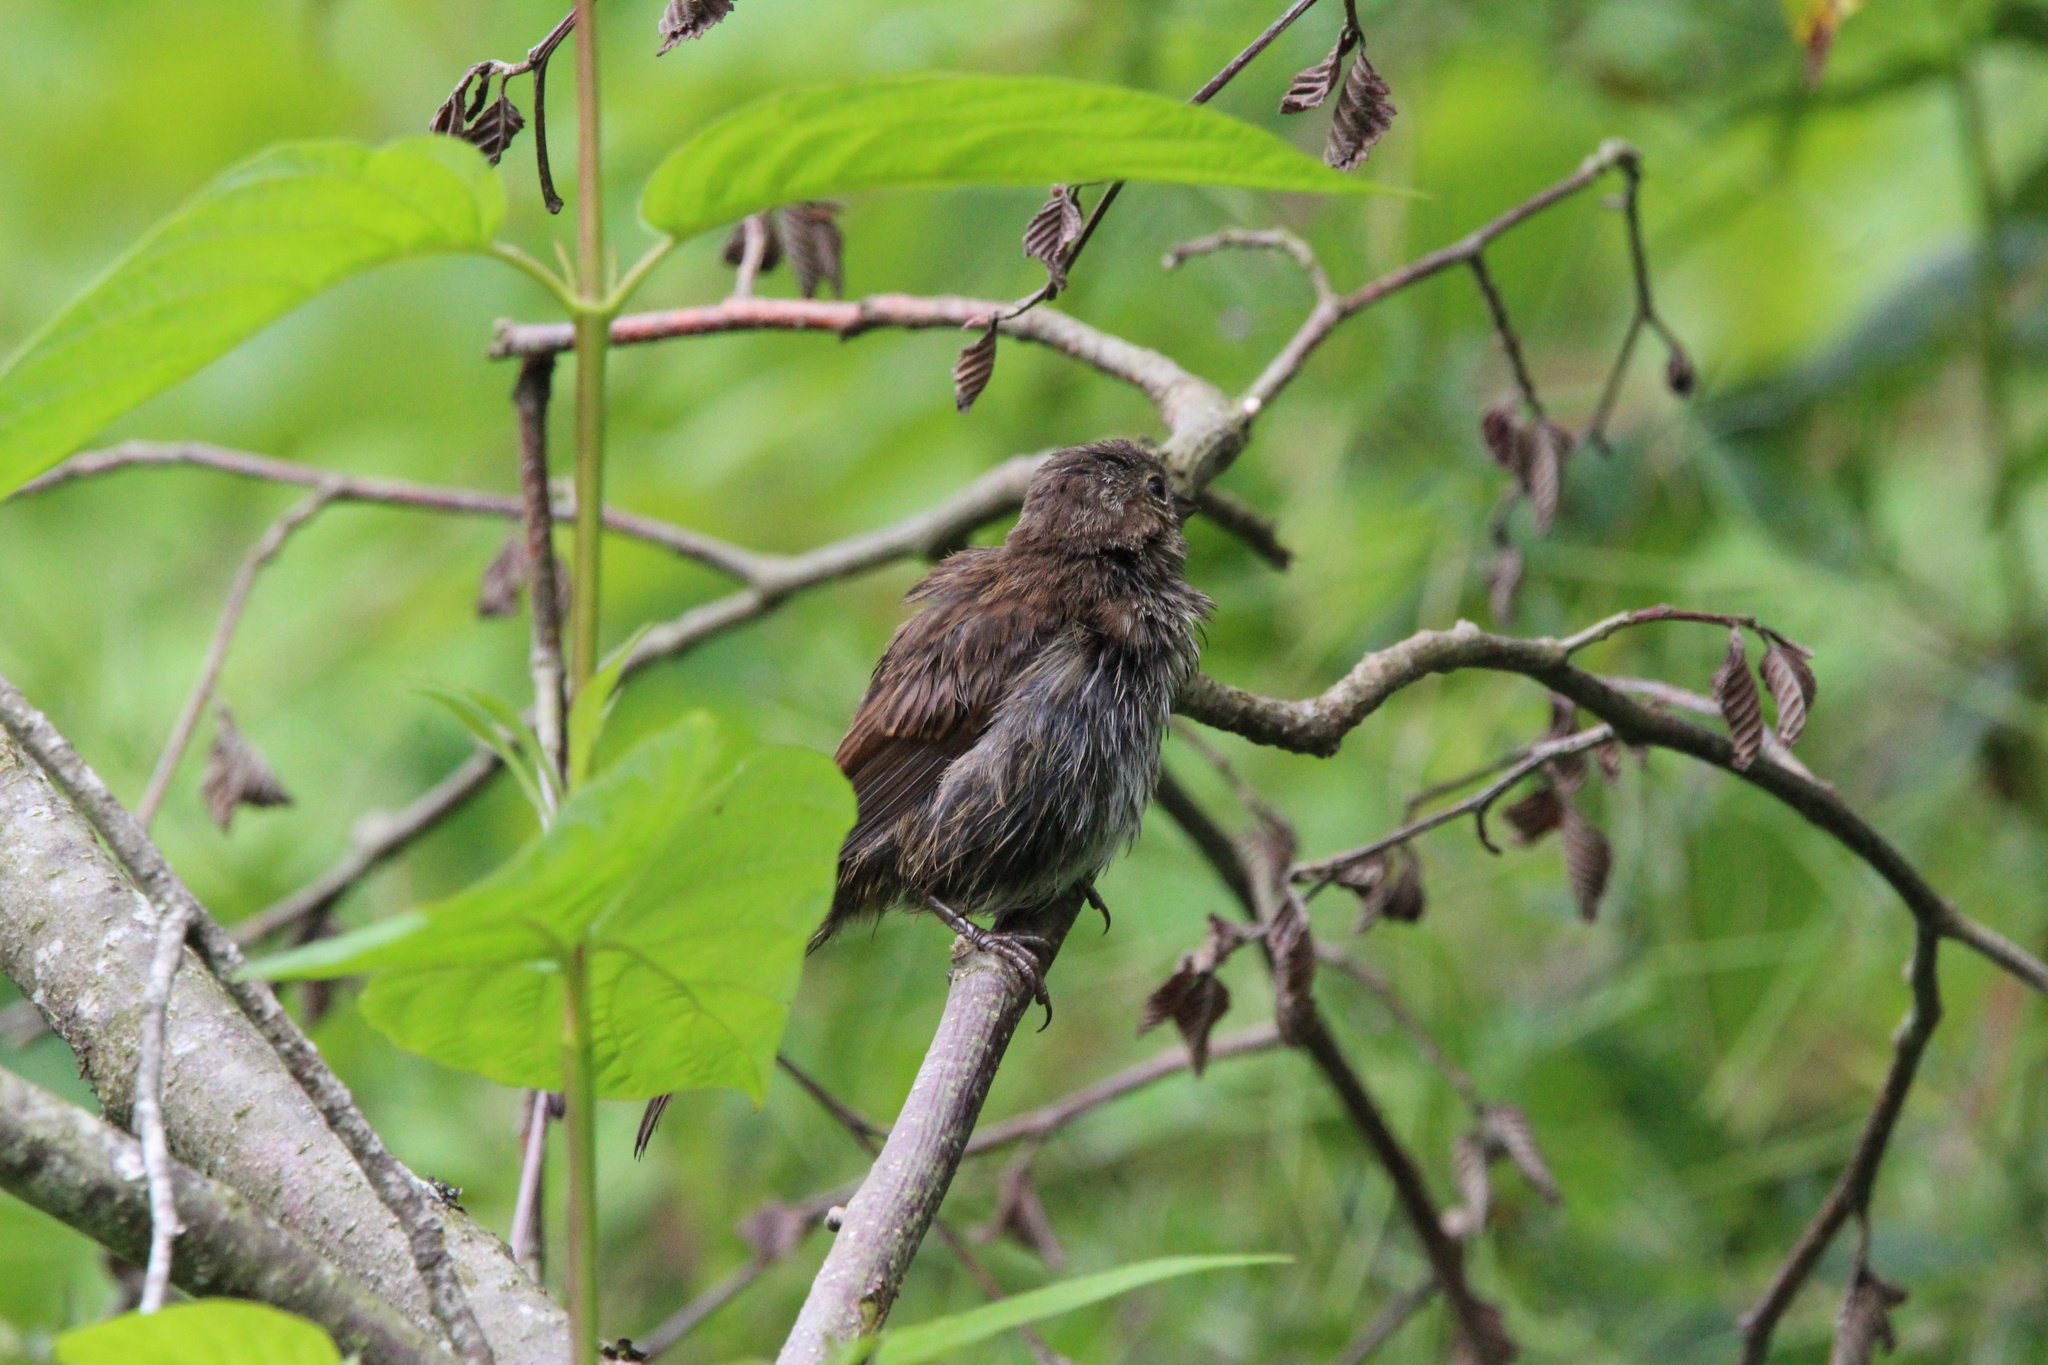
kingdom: Animalia
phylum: Chordata
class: Aves
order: Passeriformes
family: Passerellidae
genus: Melospiza
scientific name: Melospiza melodia
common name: Song sparrow
